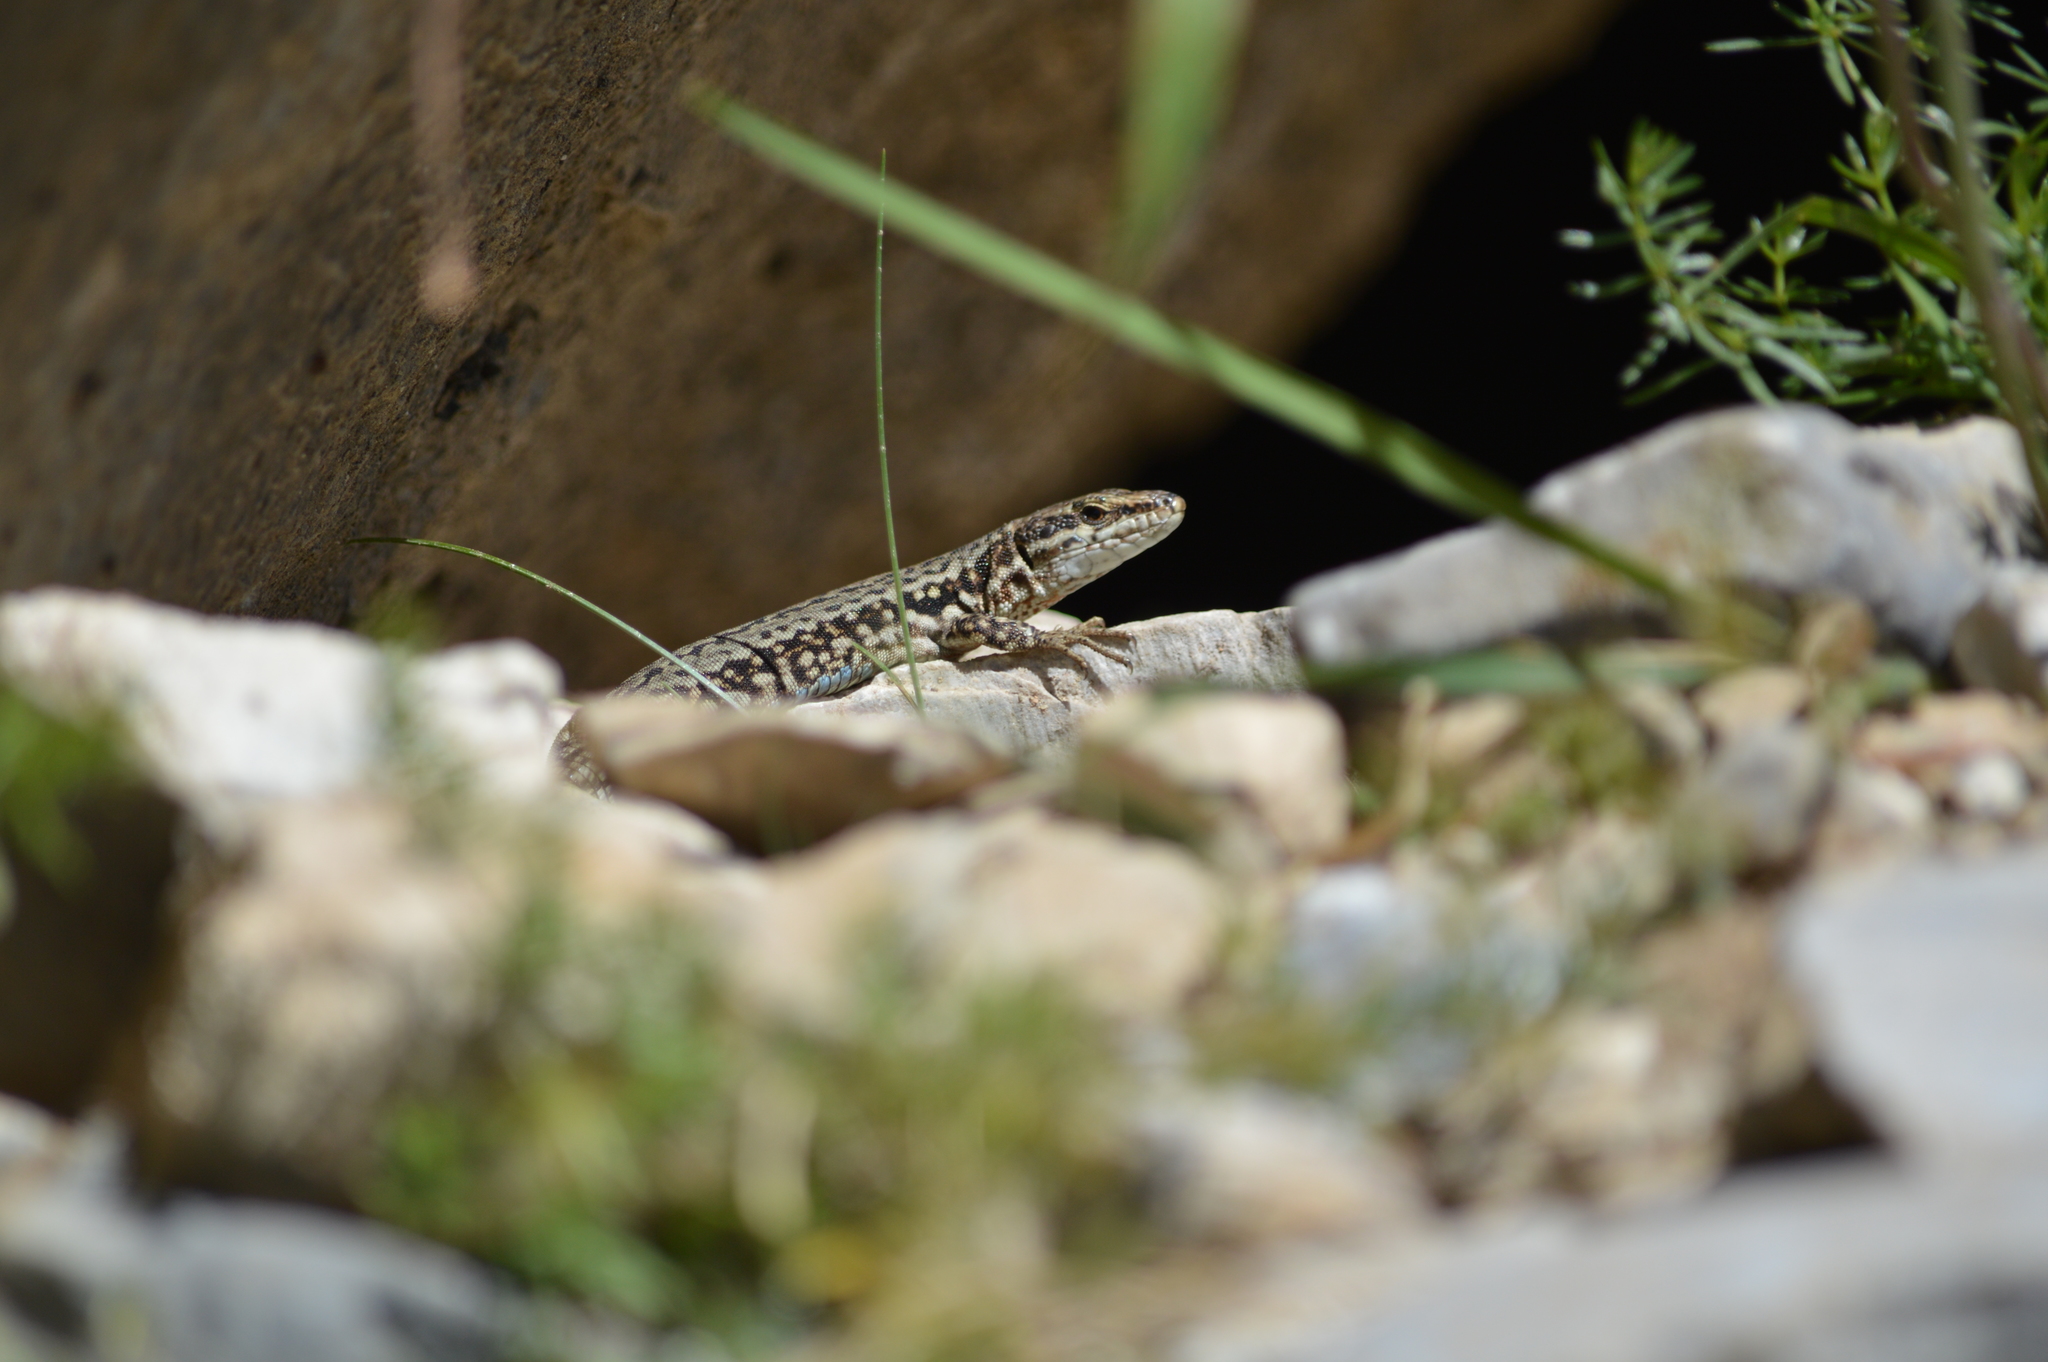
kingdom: Animalia
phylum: Chordata
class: Squamata
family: Lacertidae
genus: Podarcis
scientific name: Podarcis muralis
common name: Common wall lizard
